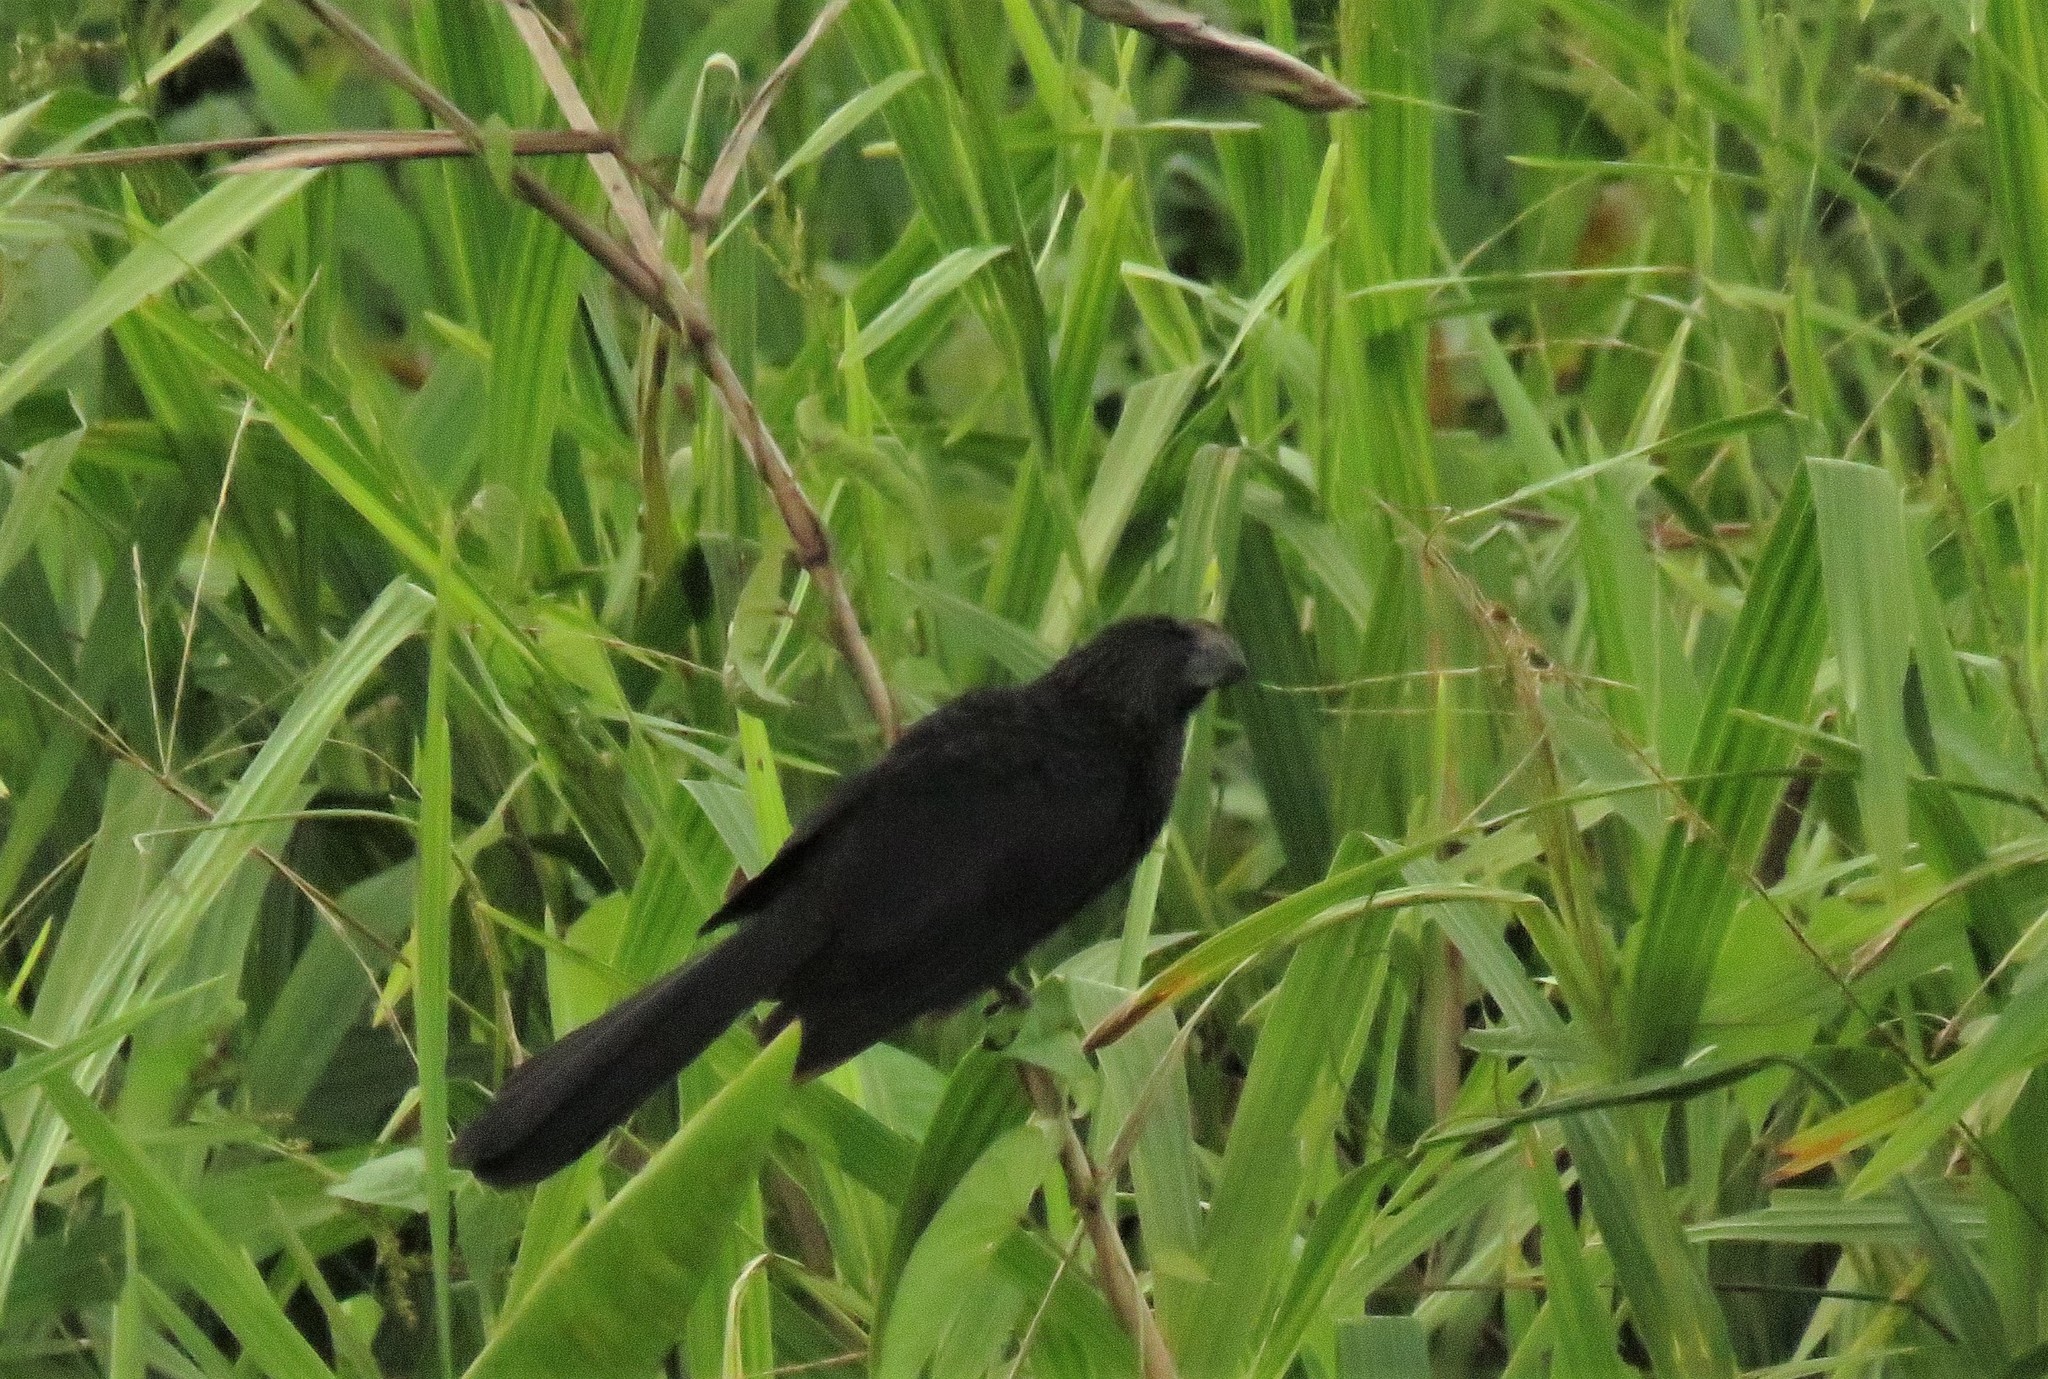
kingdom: Animalia
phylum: Chordata
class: Aves
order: Cuculiformes
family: Cuculidae
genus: Crotophaga
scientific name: Crotophaga ani
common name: Smooth-billed ani
